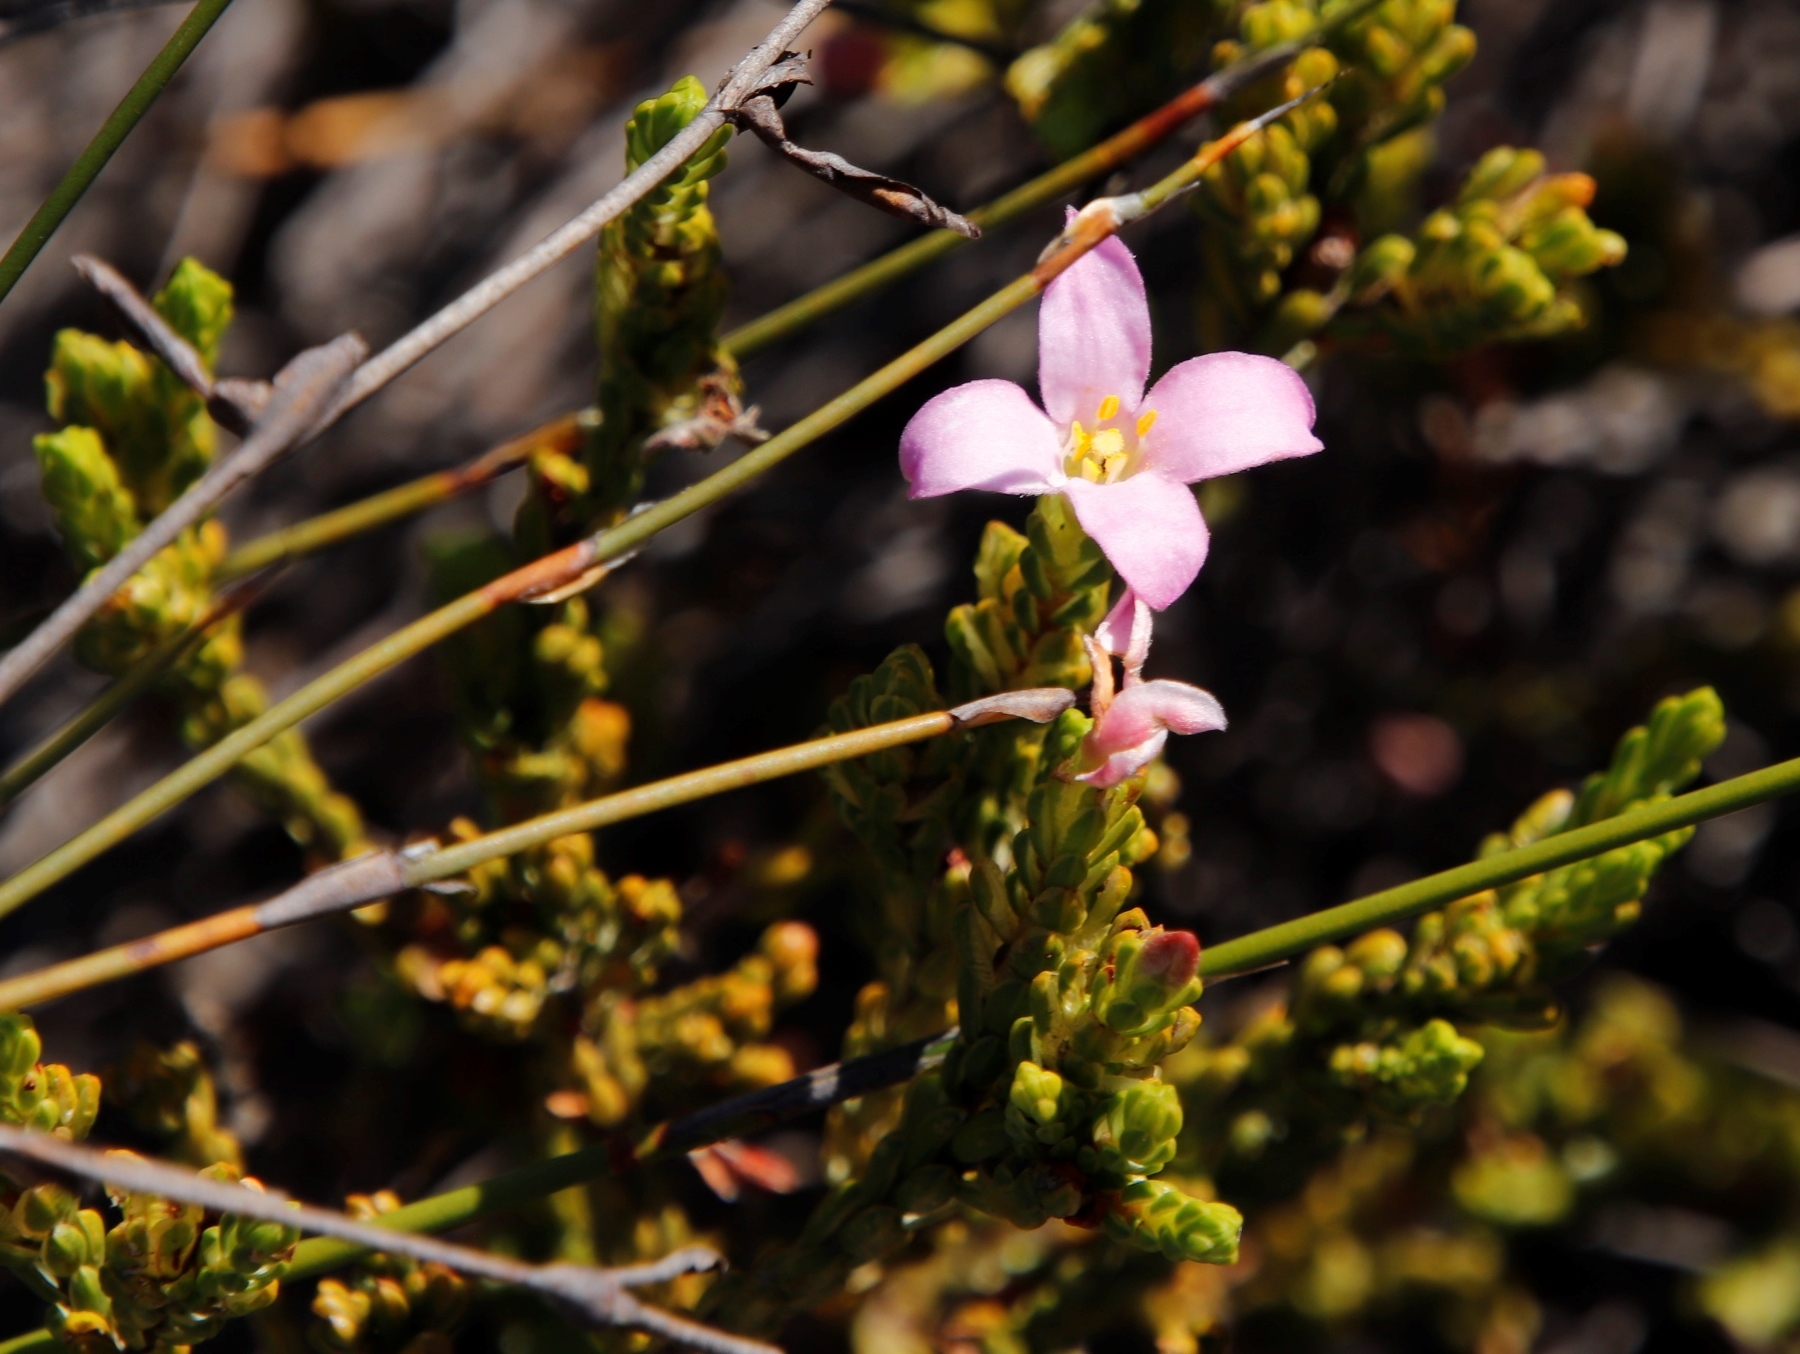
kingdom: Plantae
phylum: Tracheophyta
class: Magnoliopsida
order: Malvales
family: Thymelaeaceae
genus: Lachnaea
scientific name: Lachnaea grandiflora
